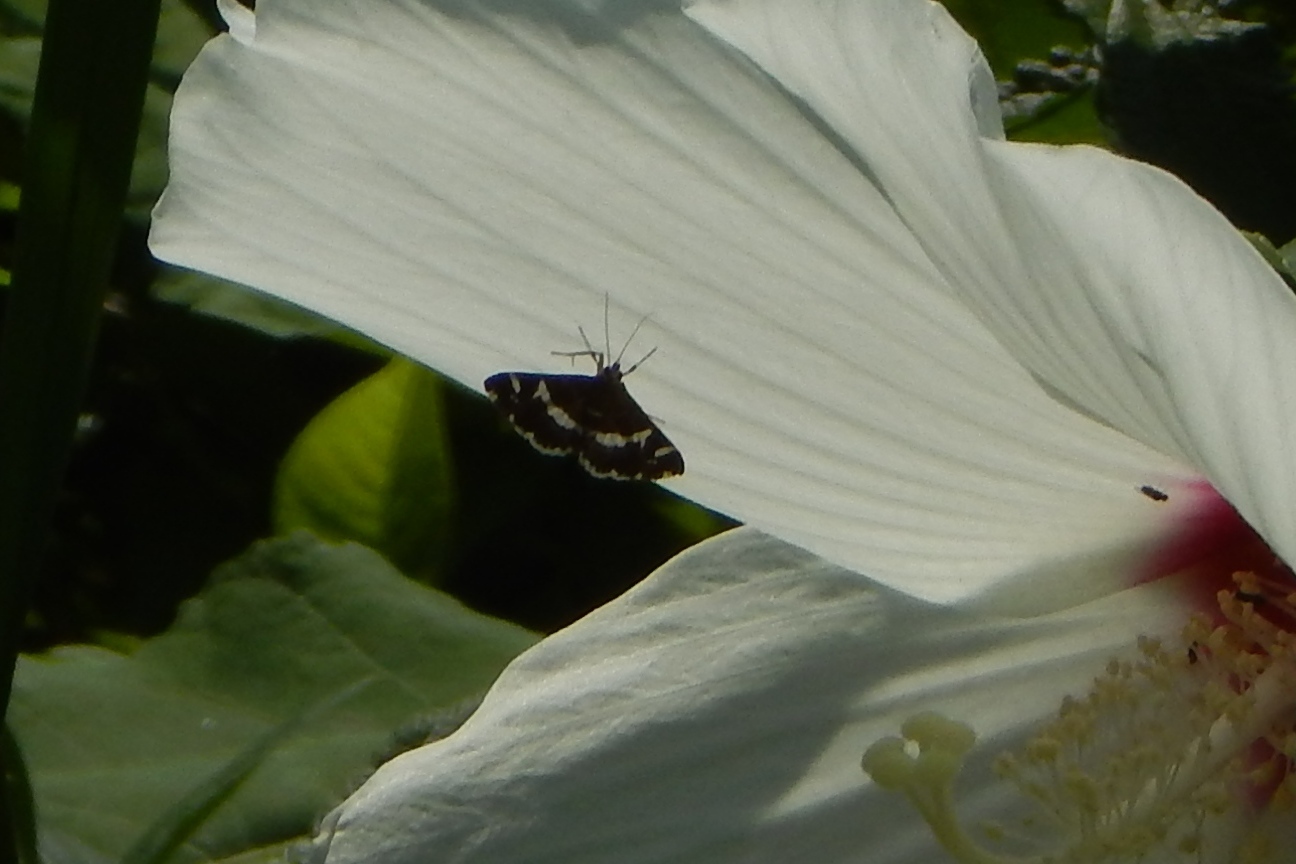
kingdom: Animalia
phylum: Arthropoda
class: Insecta
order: Lepidoptera
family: Crambidae
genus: Spoladea
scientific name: Spoladea recurvalis
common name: Beet webworm moth
